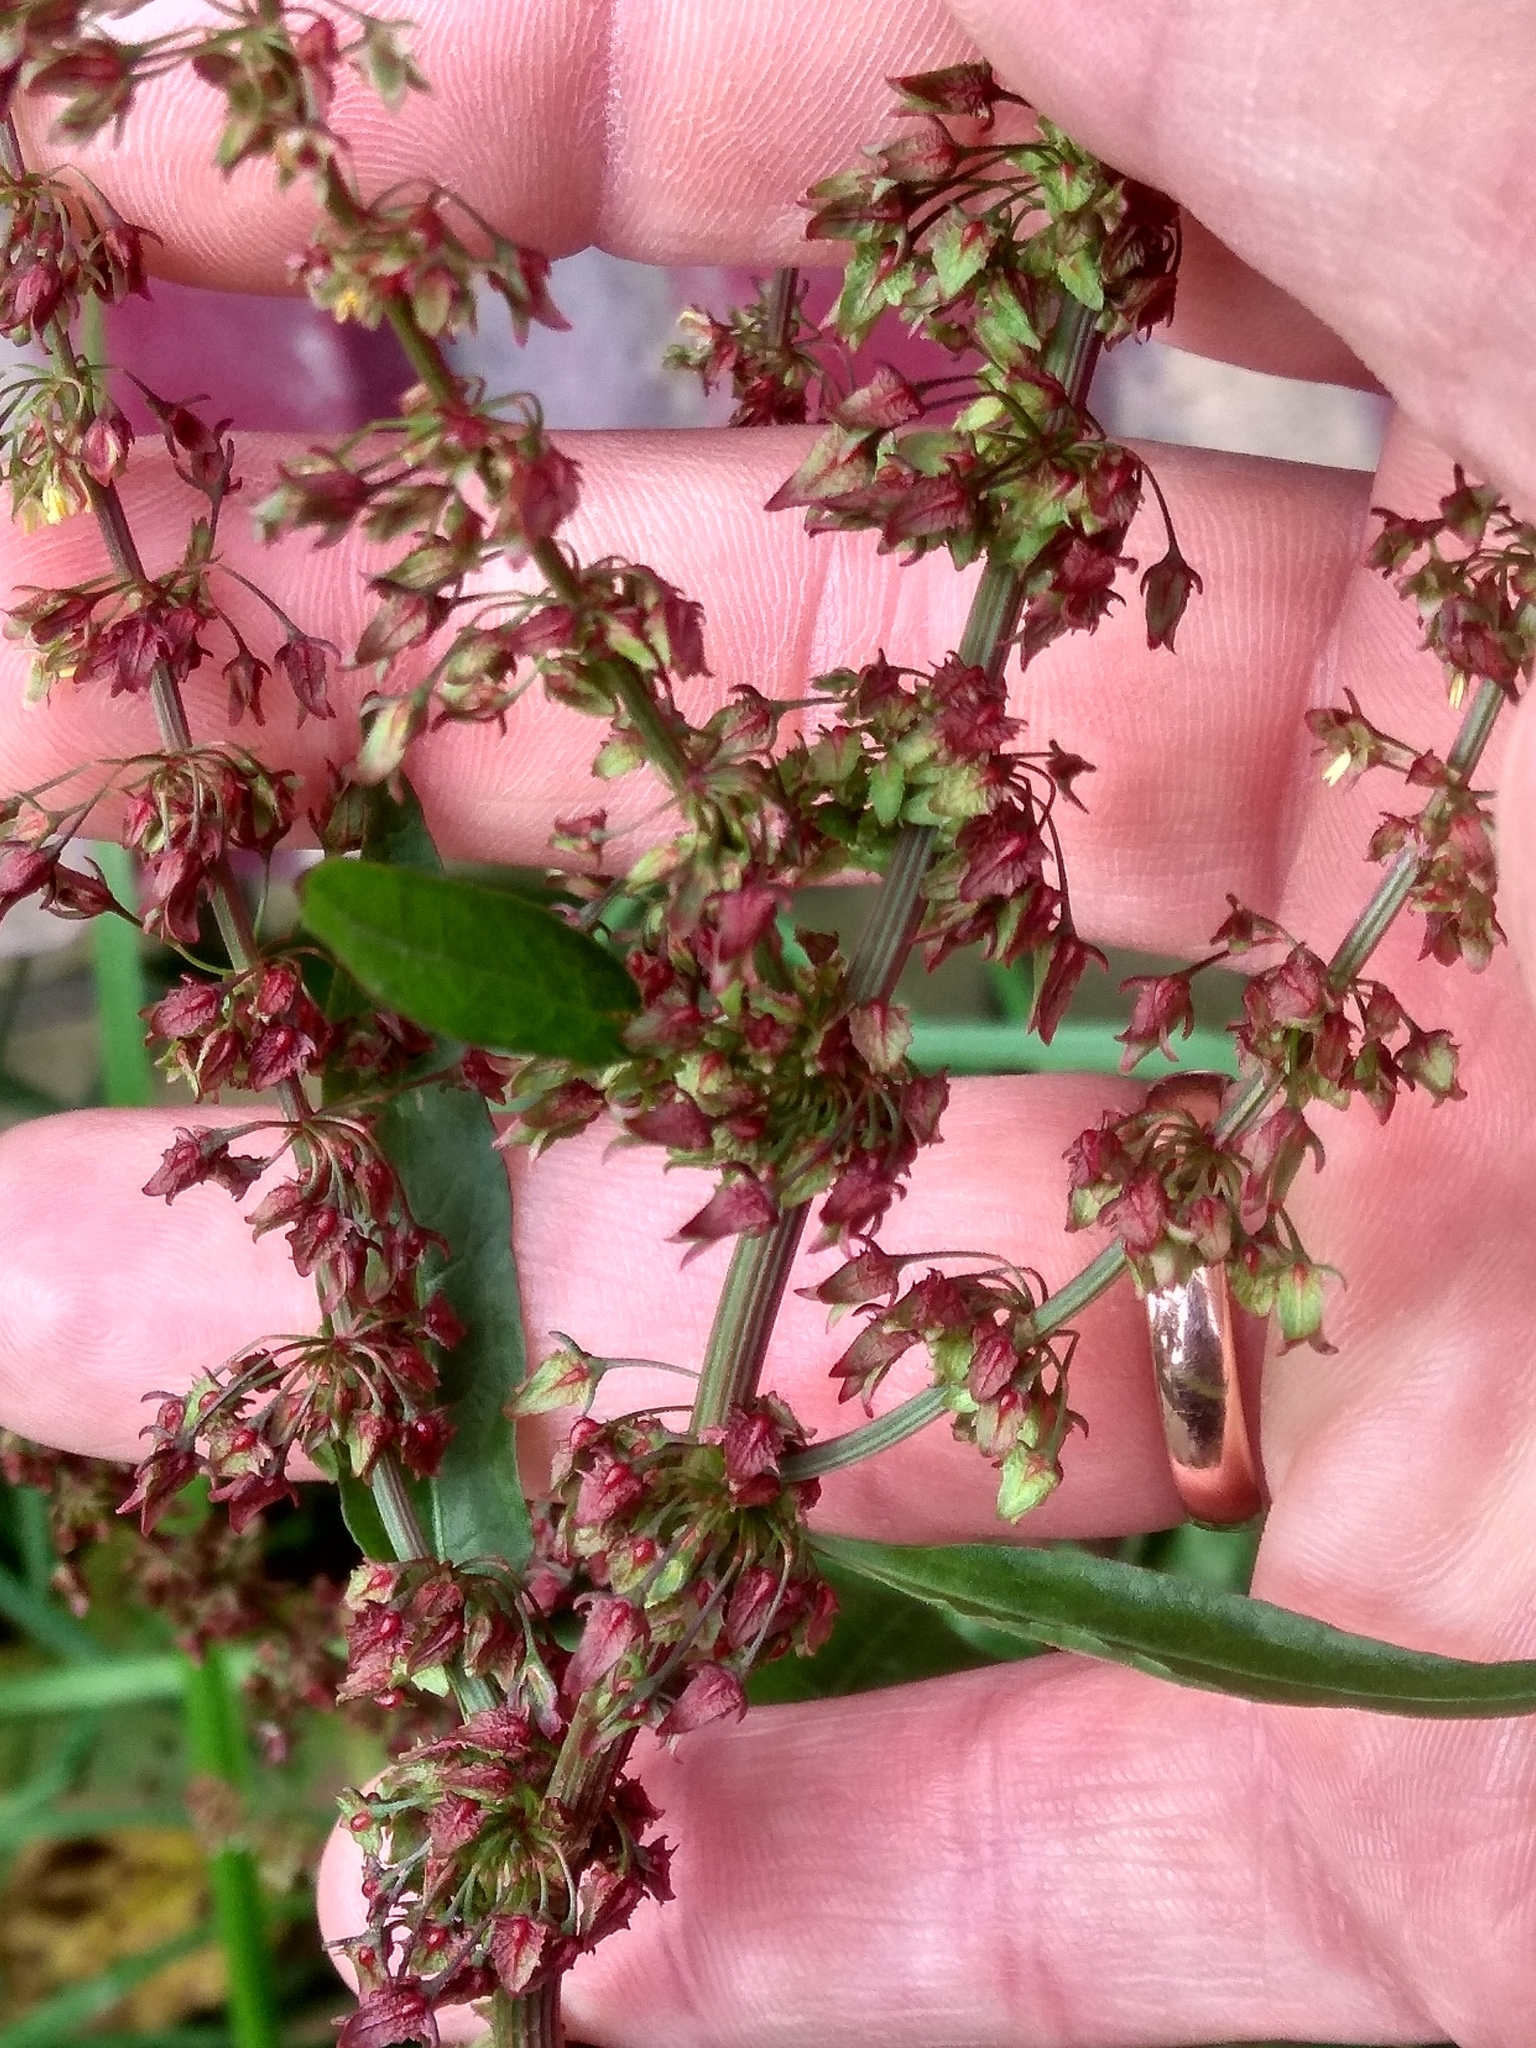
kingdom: Plantae
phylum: Tracheophyta
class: Magnoliopsida
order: Caryophyllales
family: Polygonaceae
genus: Rumex
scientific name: Rumex obtusifolius
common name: Bitter dock
